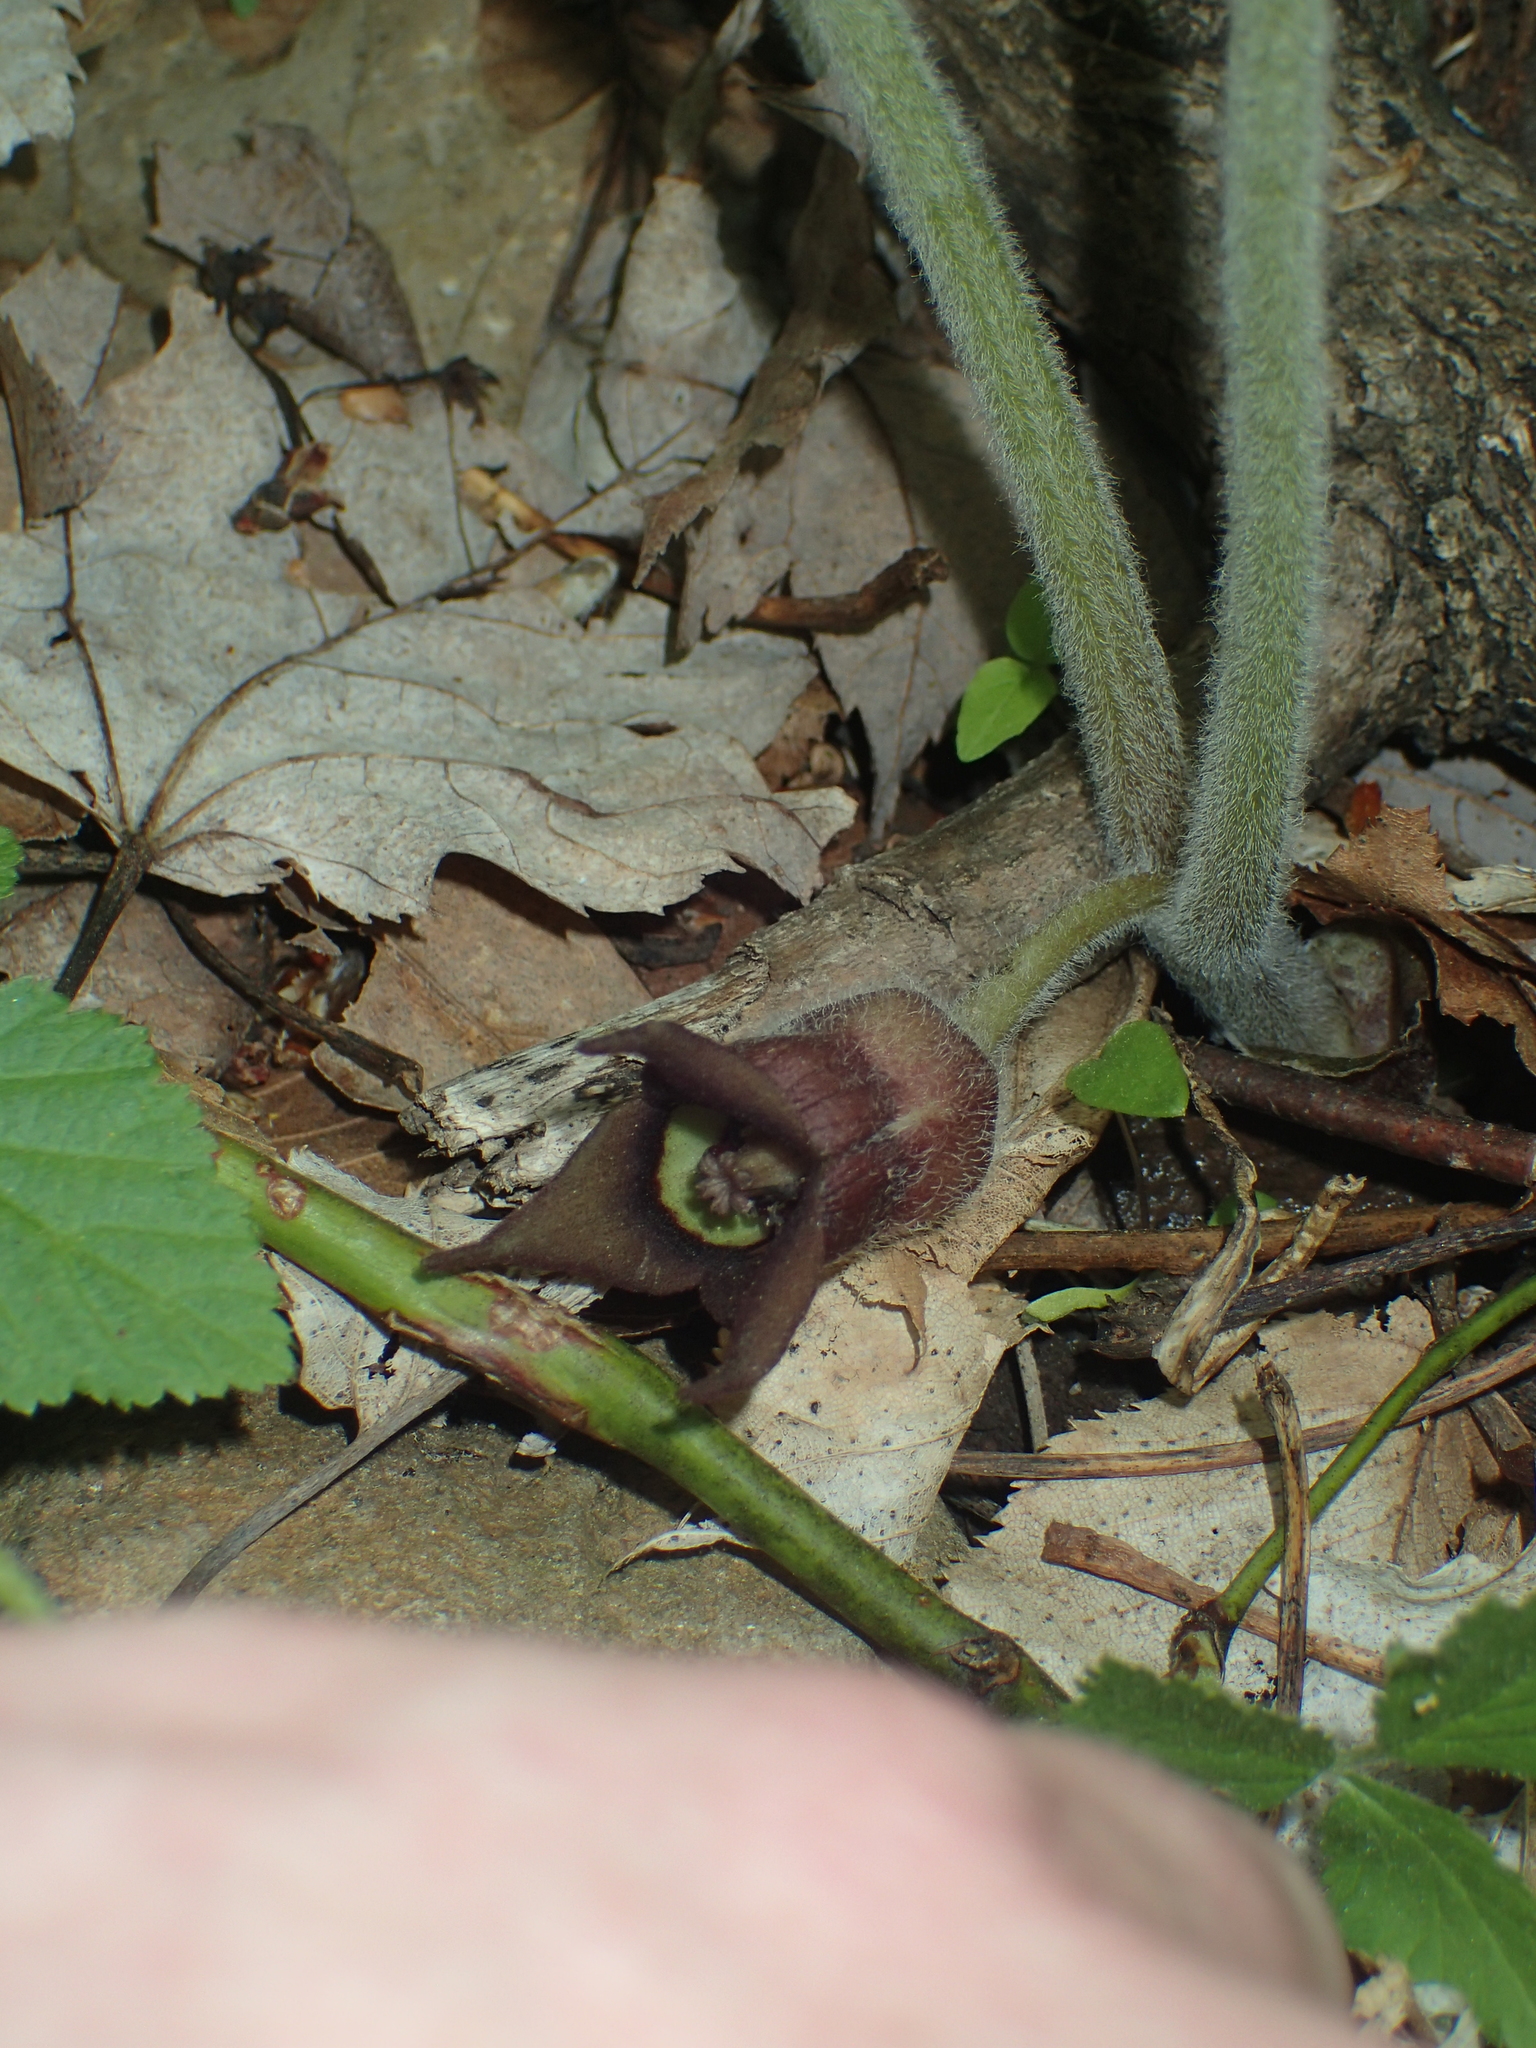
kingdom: Plantae
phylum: Tracheophyta
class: Magnoliopsida
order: Piperales
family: Aristolochiaceae
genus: Asarum
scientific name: Asarum canadense
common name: Wild ginger
